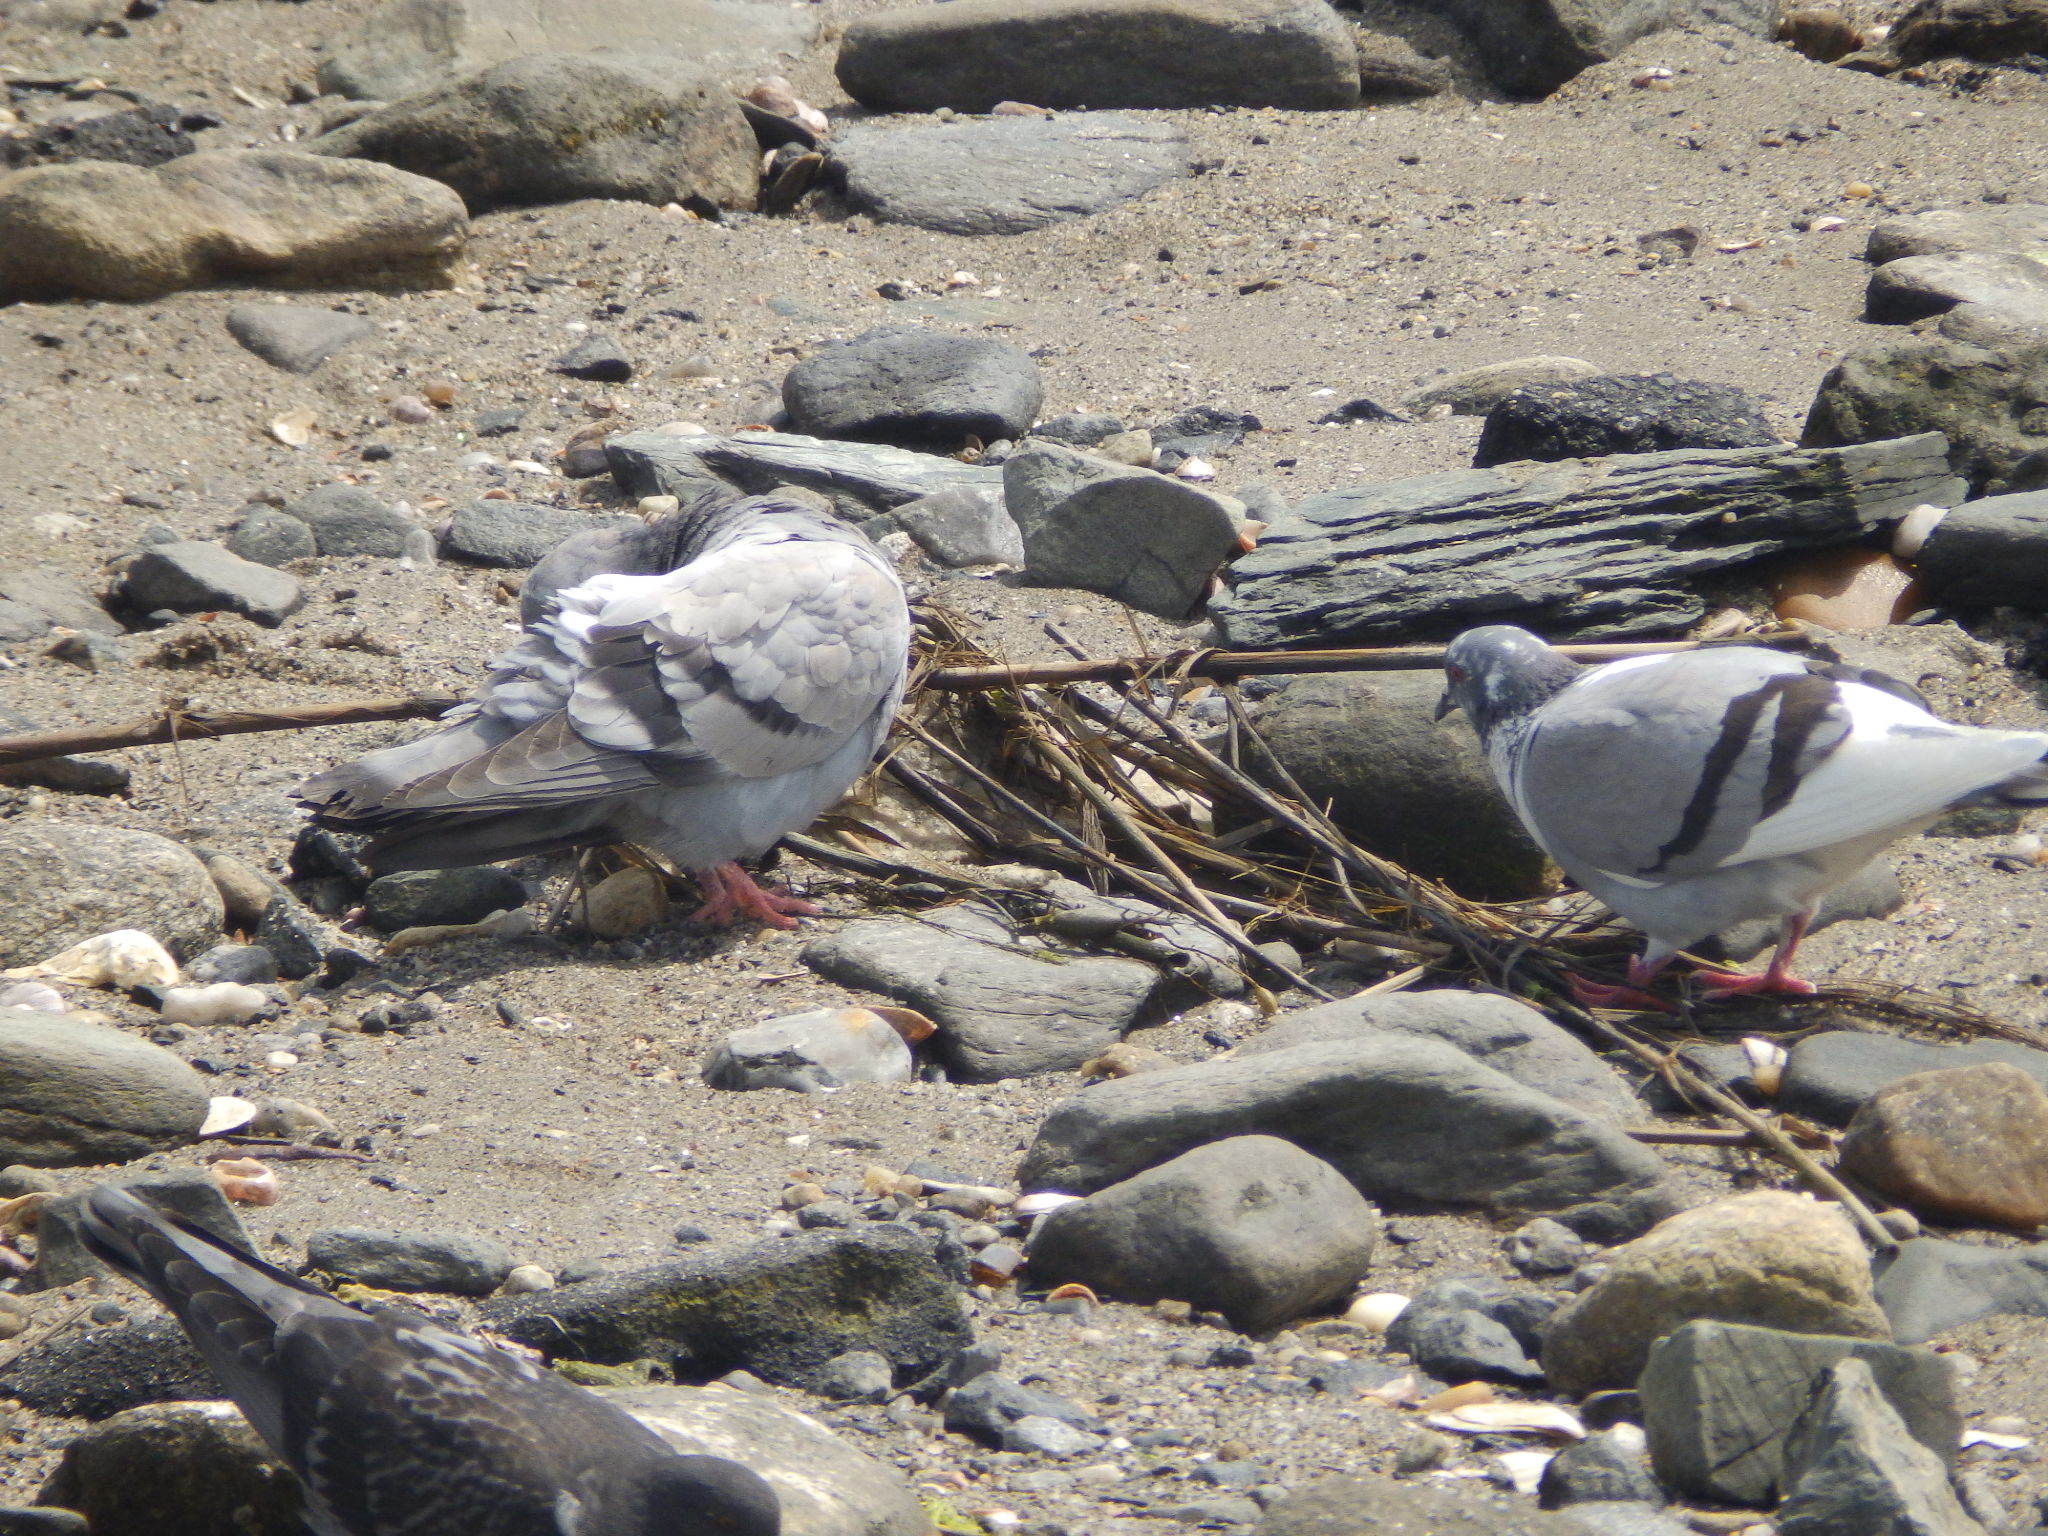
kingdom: Animalia
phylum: Chordata
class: Aves
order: Columbiformes
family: Columbidae
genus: Columba
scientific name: Columba livia
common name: Rock pigeon
